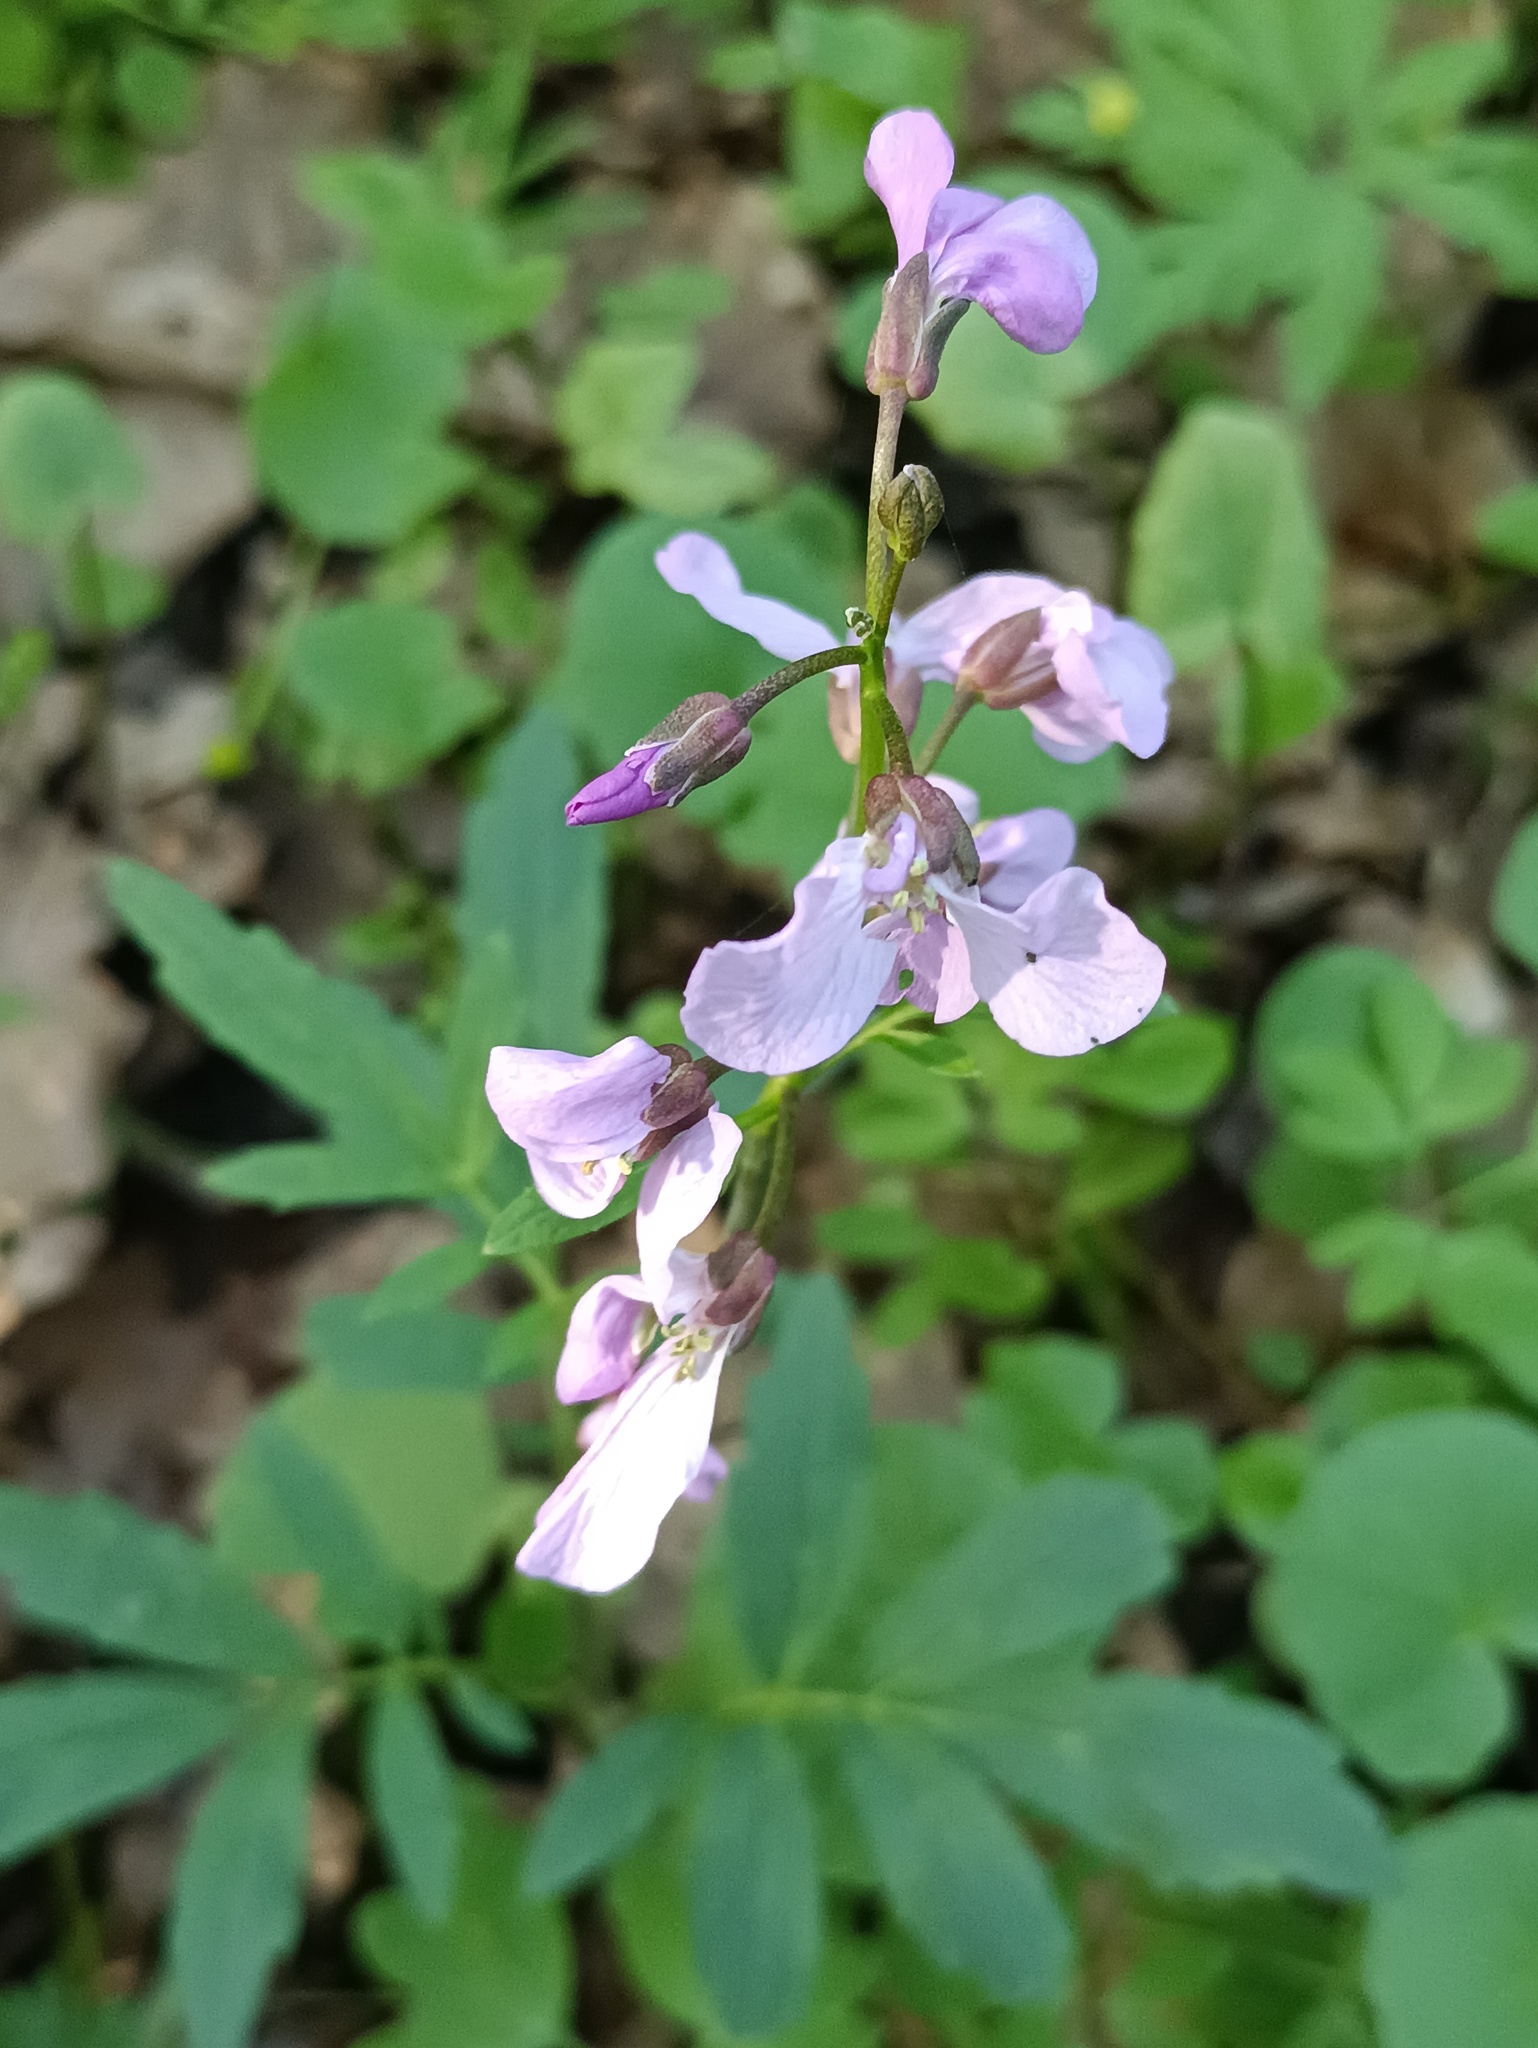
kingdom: Plantae
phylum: Tracheophyta
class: Magnoliopsida
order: Brassicales
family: Brassicaceae
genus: Cardamine
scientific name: Cardamine quinquefolia
